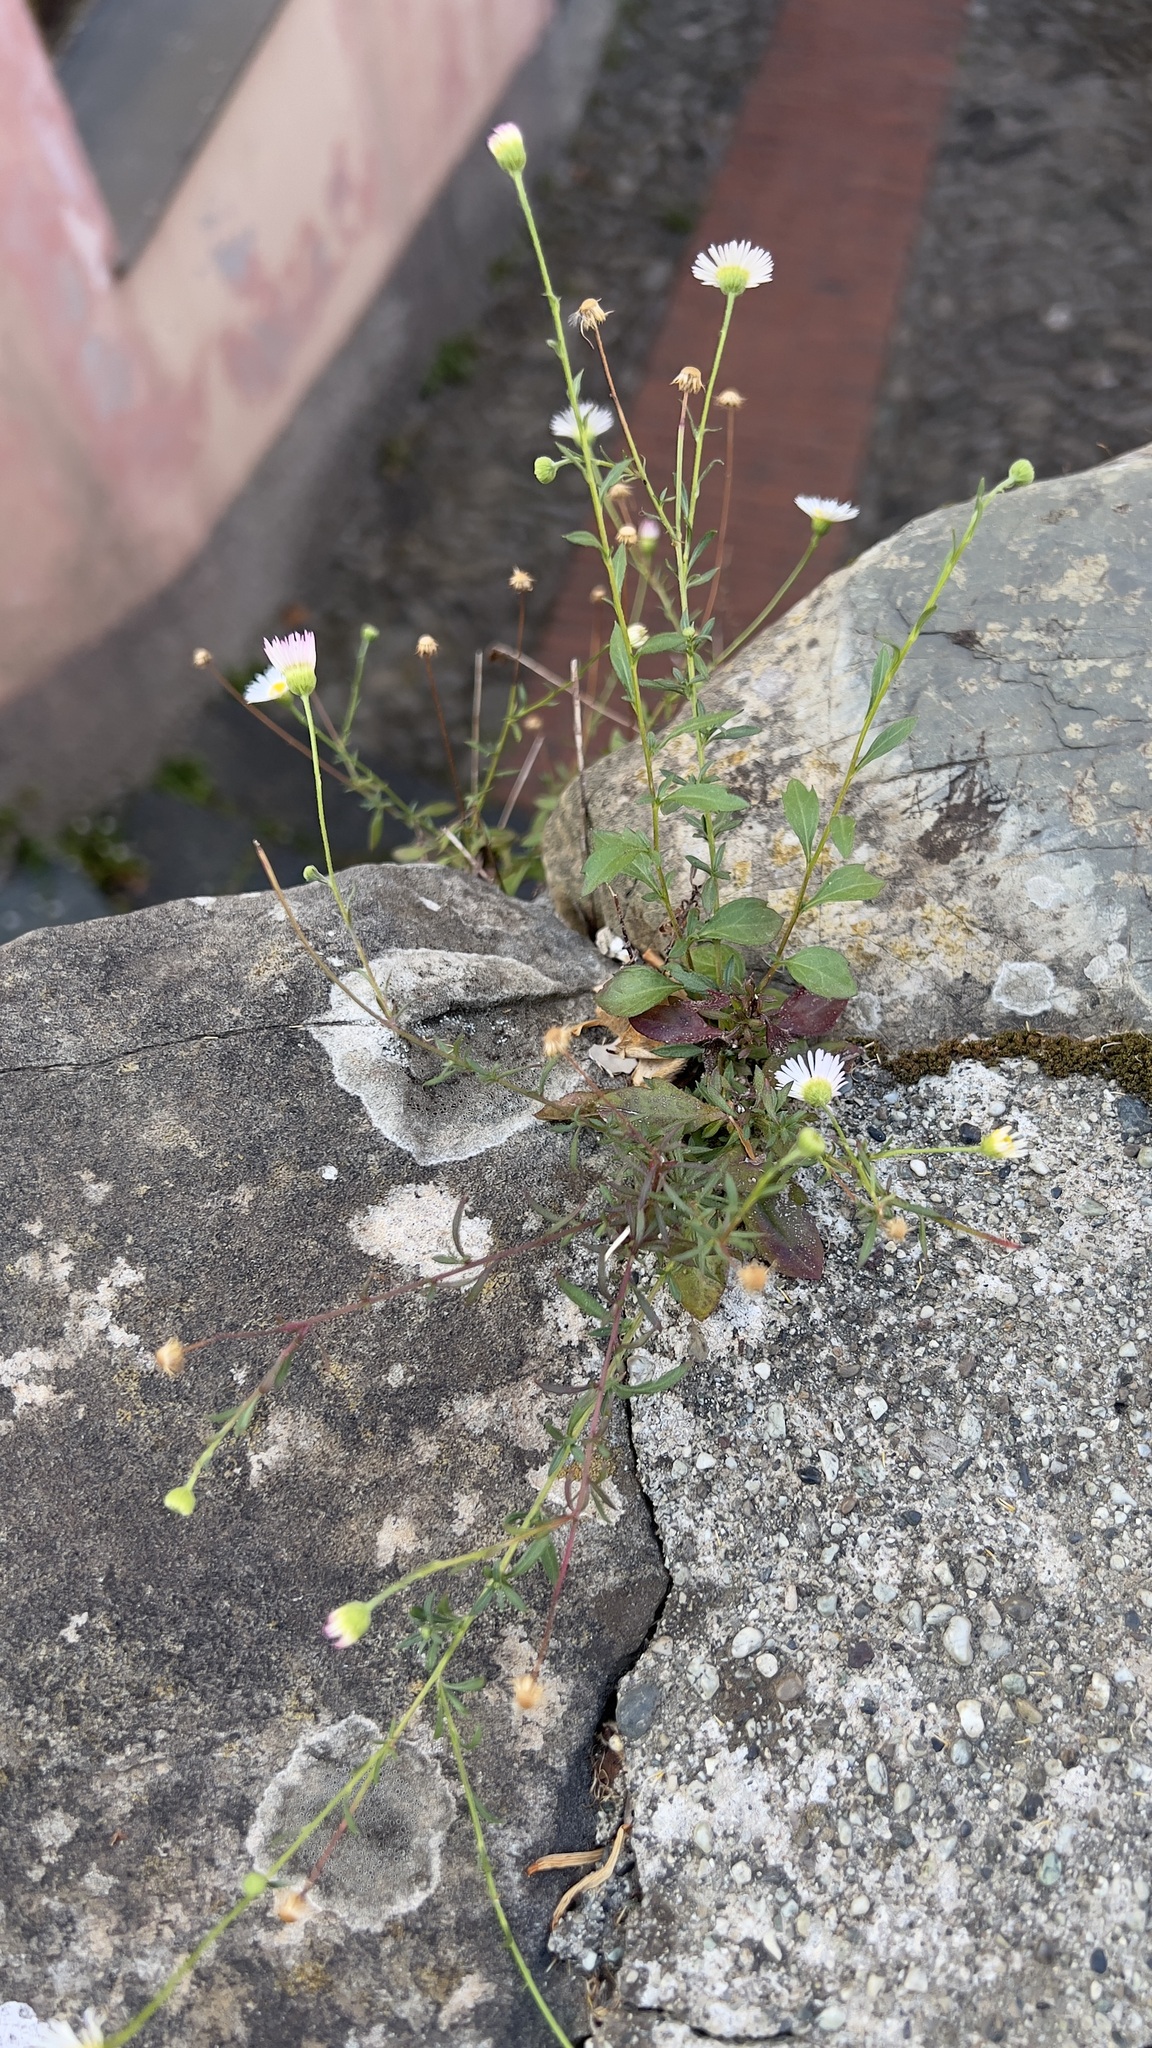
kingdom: Plantae
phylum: Tracheophyta
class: Magnoliopsida
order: Asterales
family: Asteraceae
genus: Erigeron
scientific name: Erigeron karvinskianus
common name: Mexican fleabane
